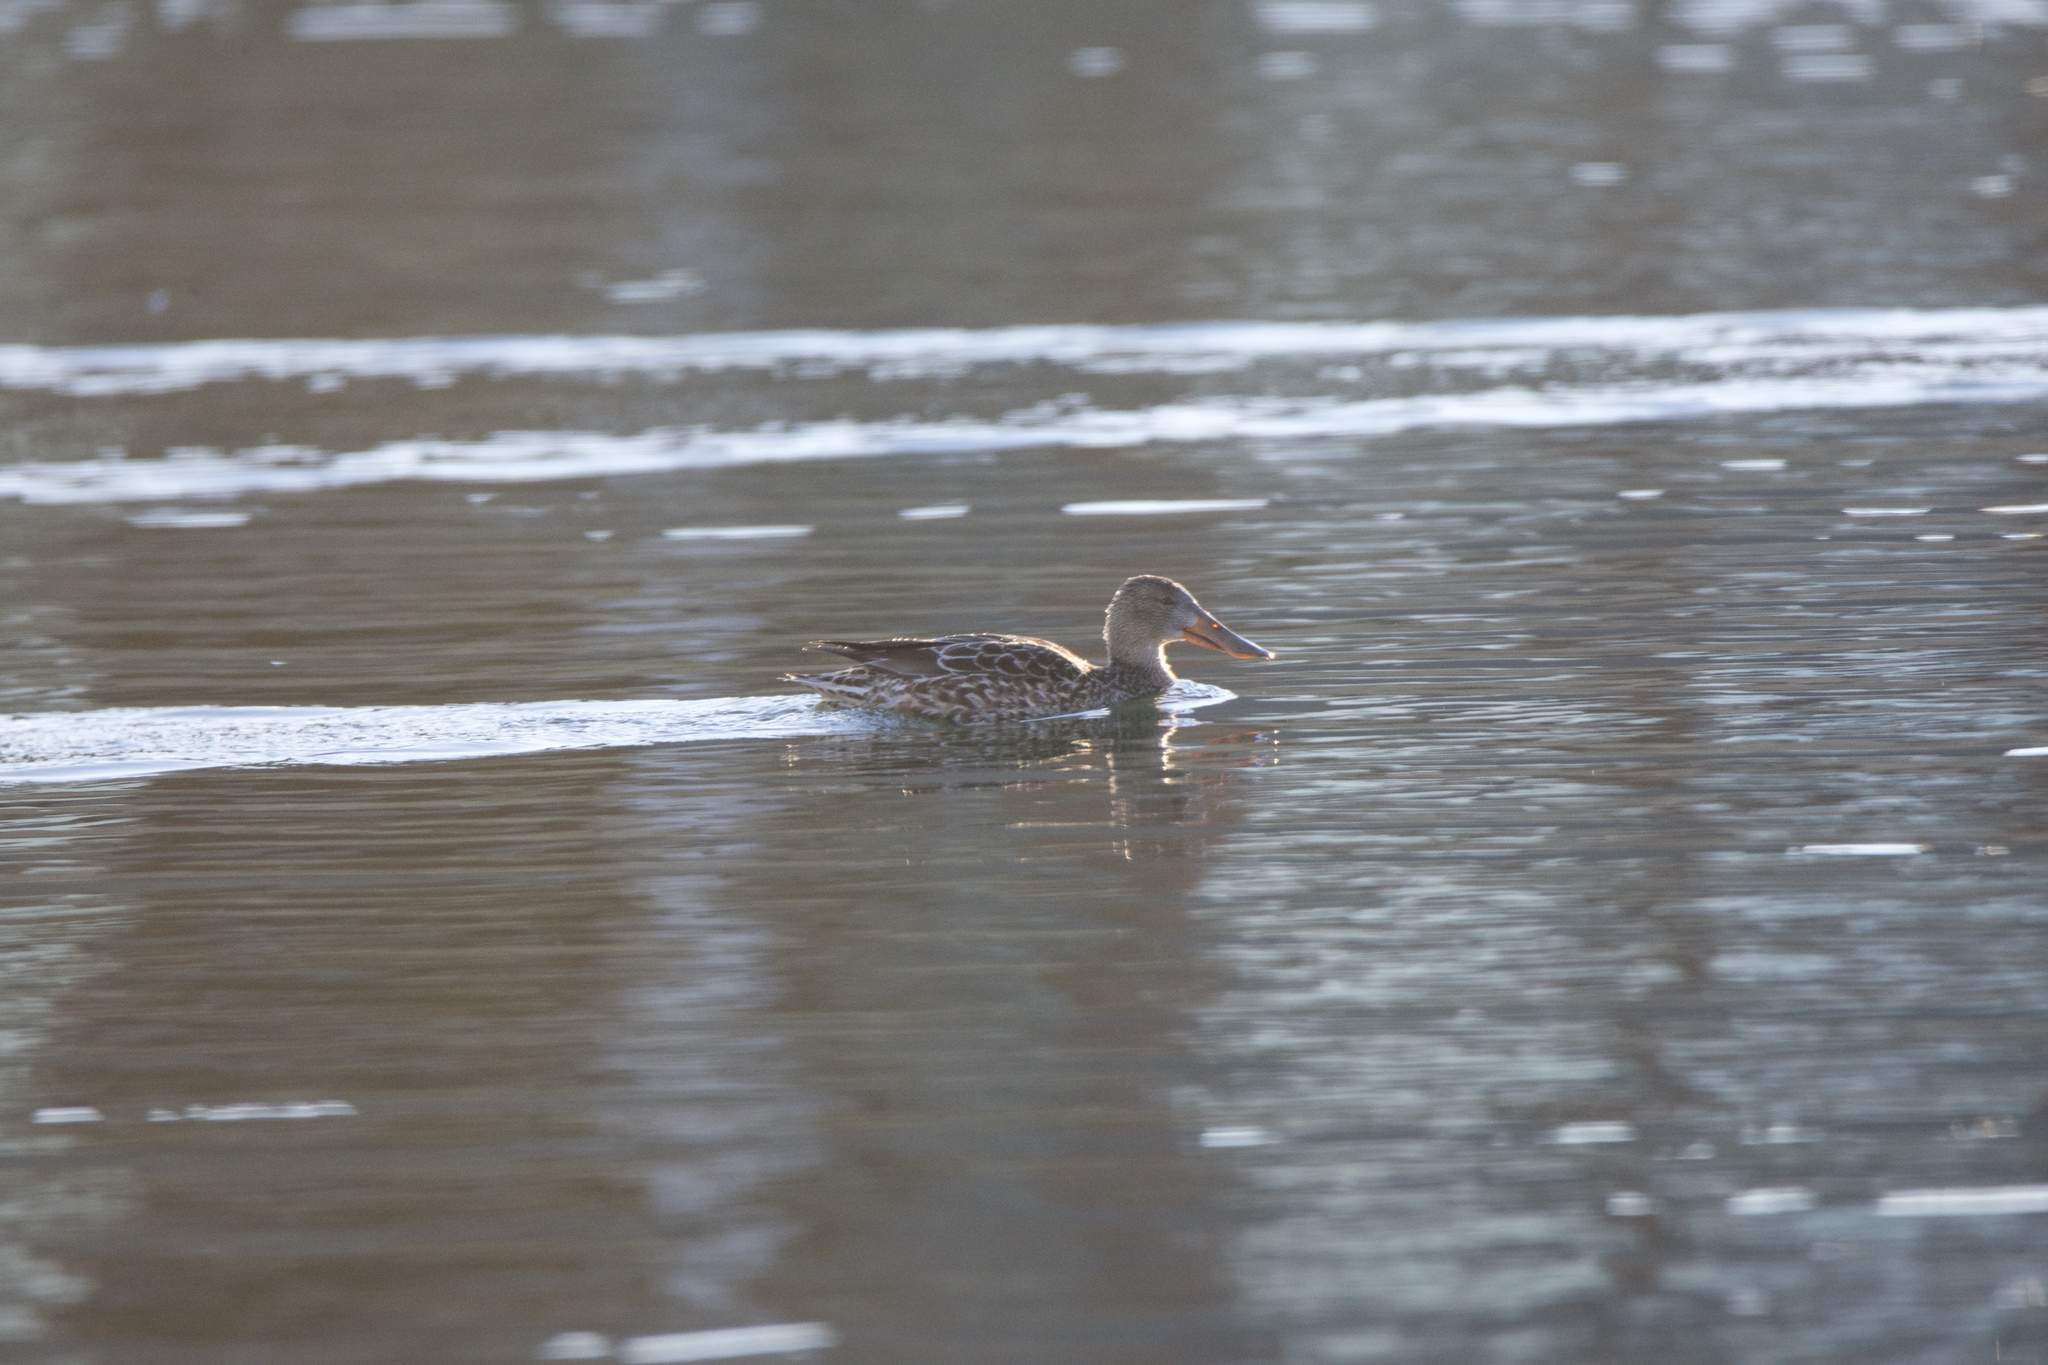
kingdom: Animalia
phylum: Chordata
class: Aves
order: Anseriformes
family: Anatidae
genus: Spatula
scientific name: Spatula clypeata
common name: Northern shoveler
